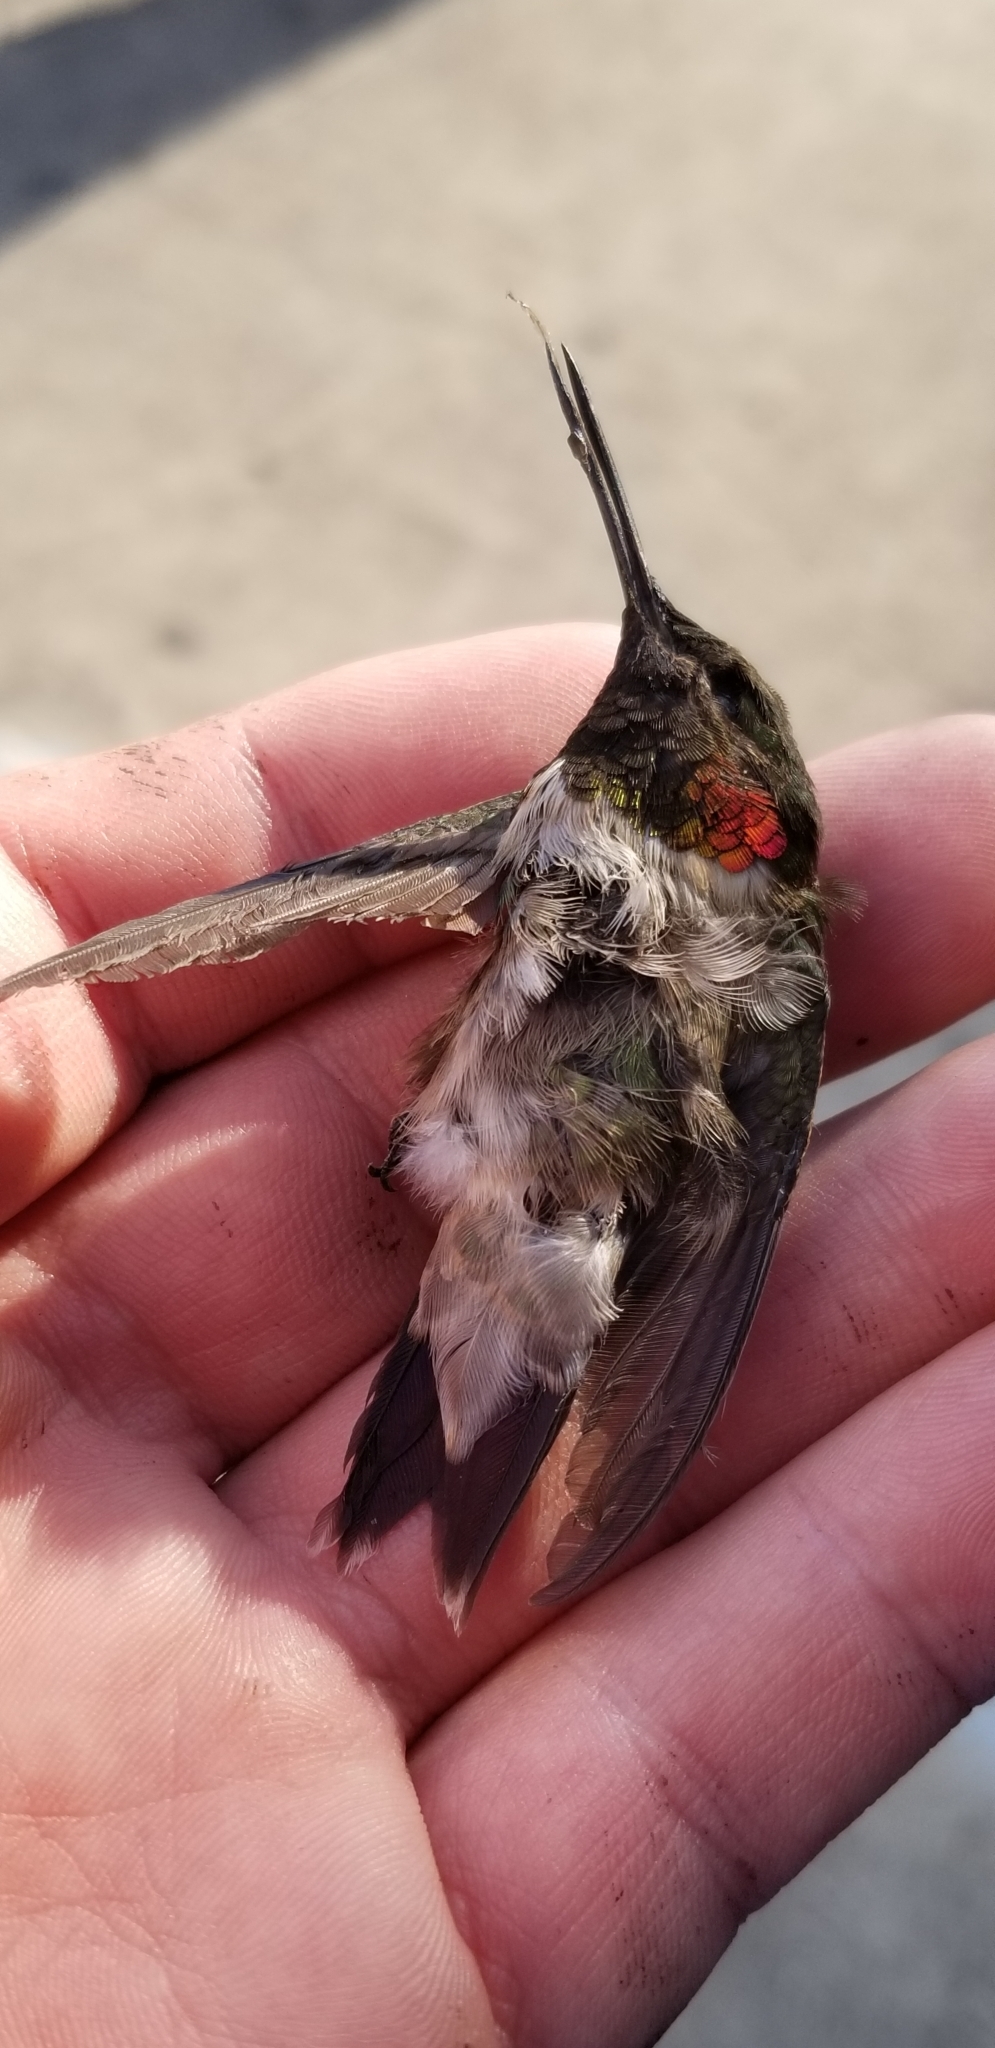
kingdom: Animalia
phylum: Chordata
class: Aves
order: Apodiformes
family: Trochilidae
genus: Archilochus
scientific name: Archilochus colubris
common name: Ruby-throated hummingbird
